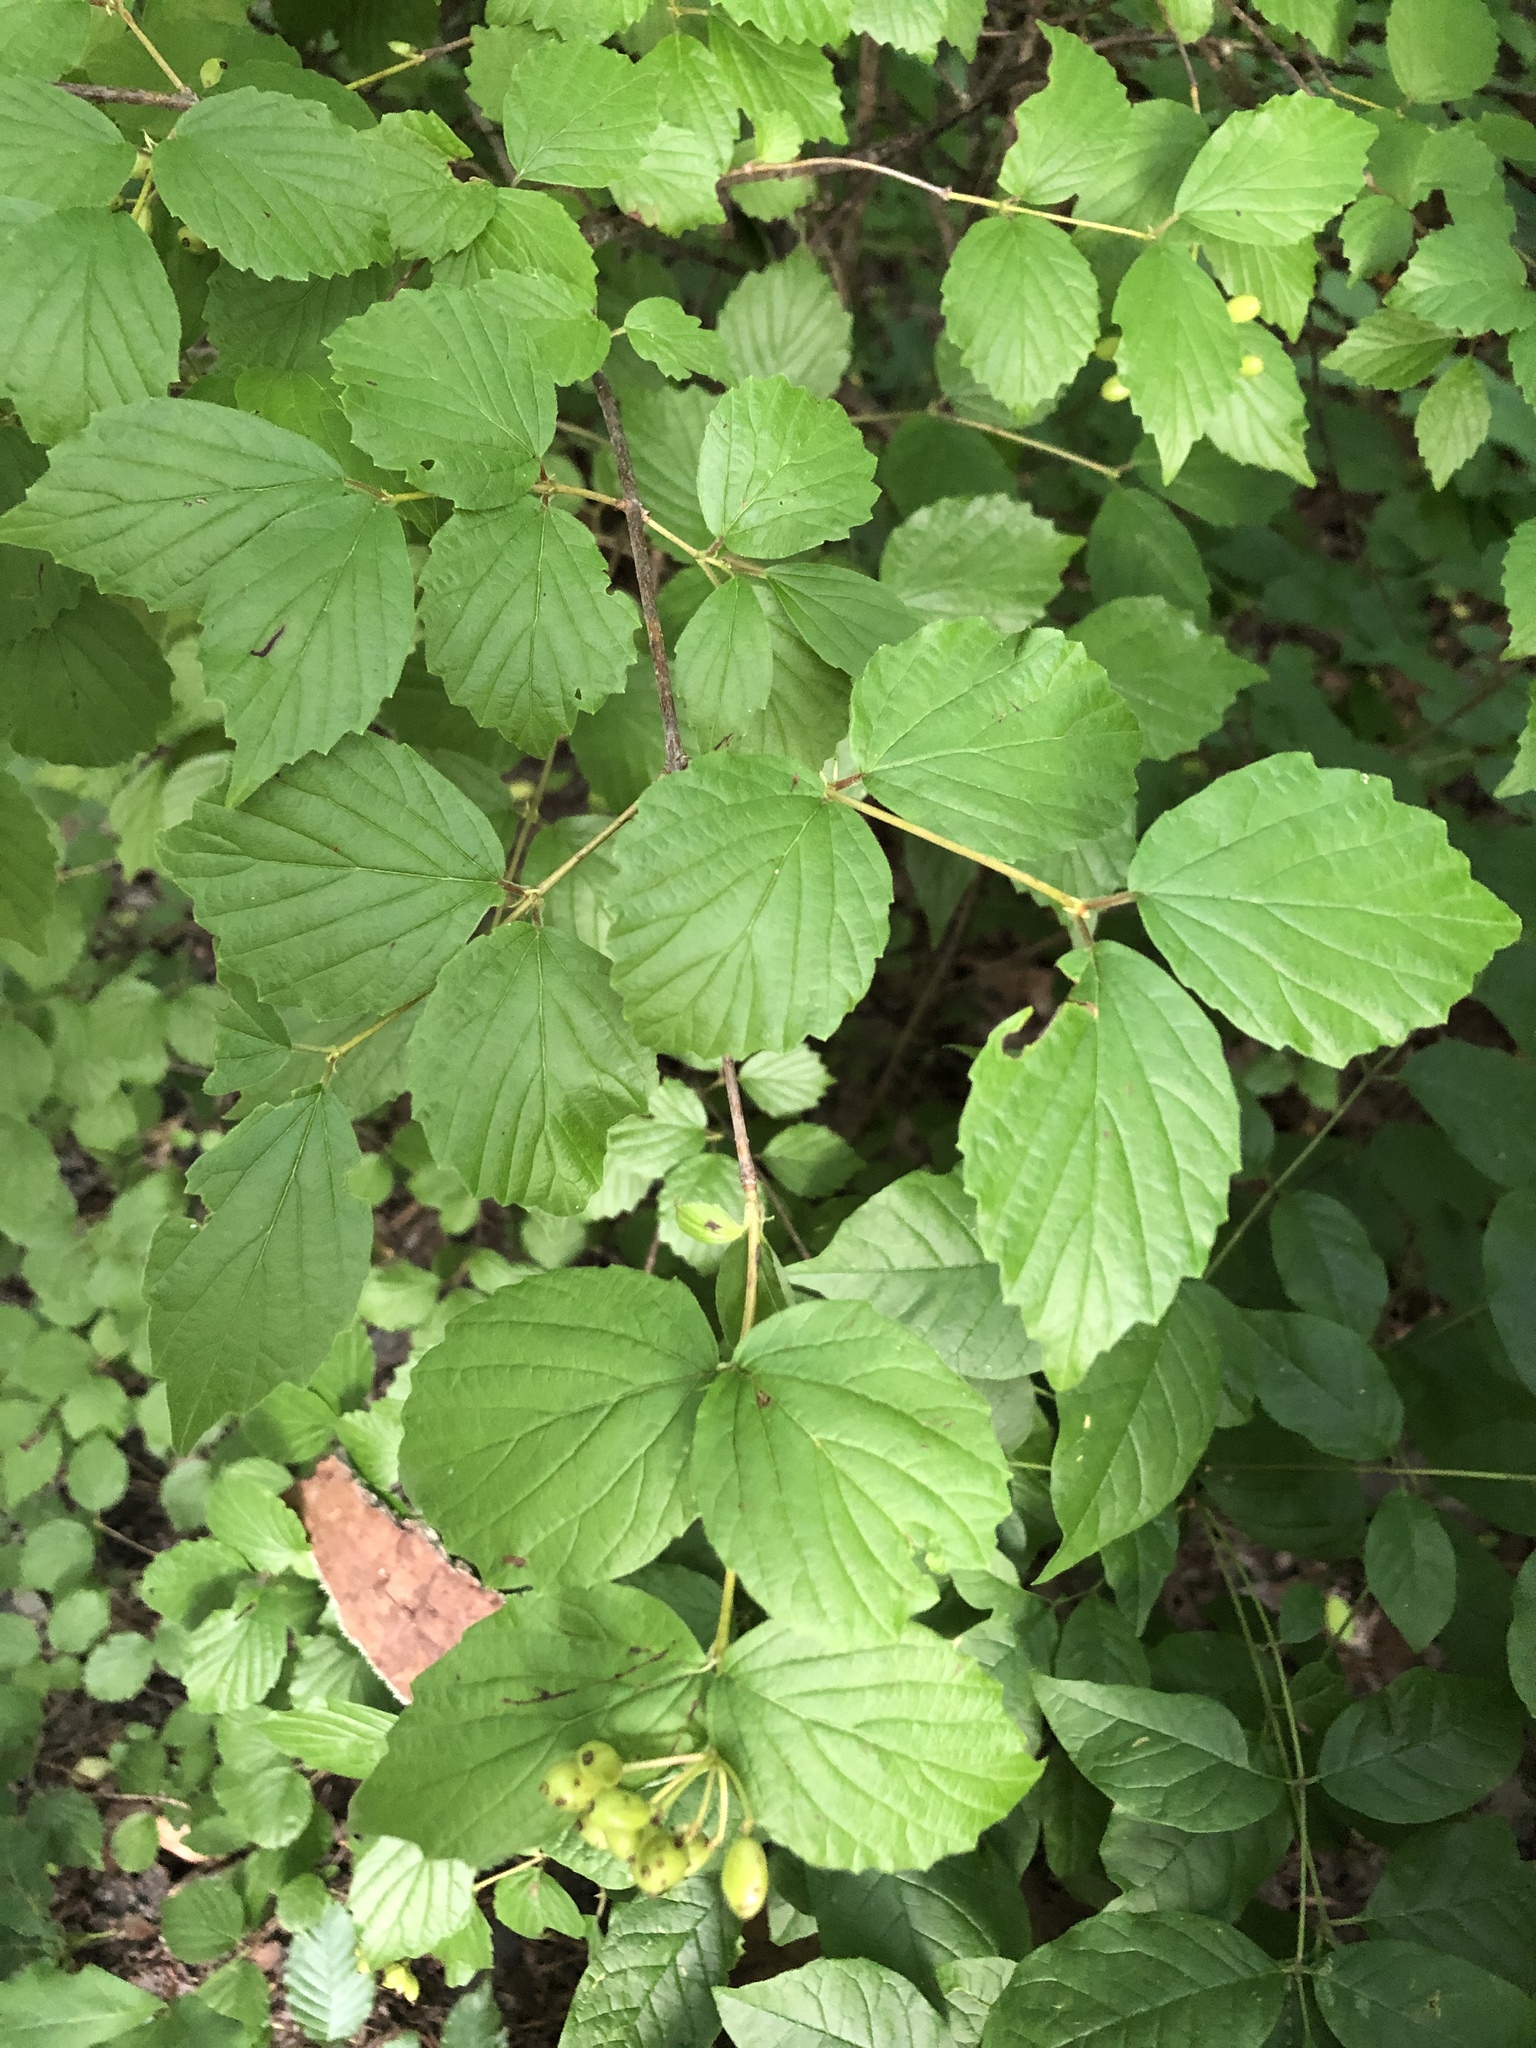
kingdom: Plantae
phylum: Tracheophyta
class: Magnoliopsida
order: Dipsacales
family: Viburnaceae
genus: Viburnum
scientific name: Viburnum rafinesqueanum
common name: Downy arrow-wood
